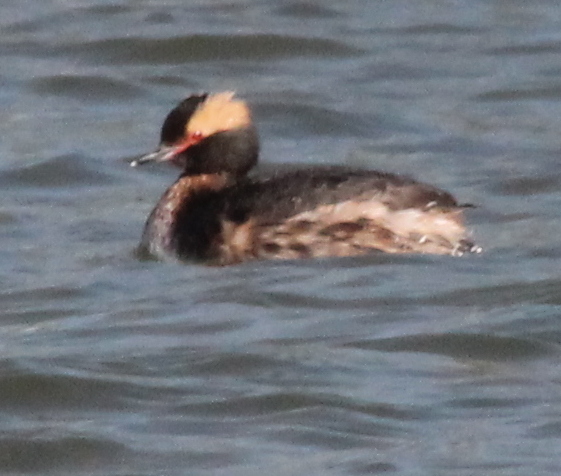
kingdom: Animalia
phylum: Chordata
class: Aves
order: Podicipediformes
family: Podicipedidae
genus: Podiceps
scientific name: Podiceps auritus
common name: Horned grebe
